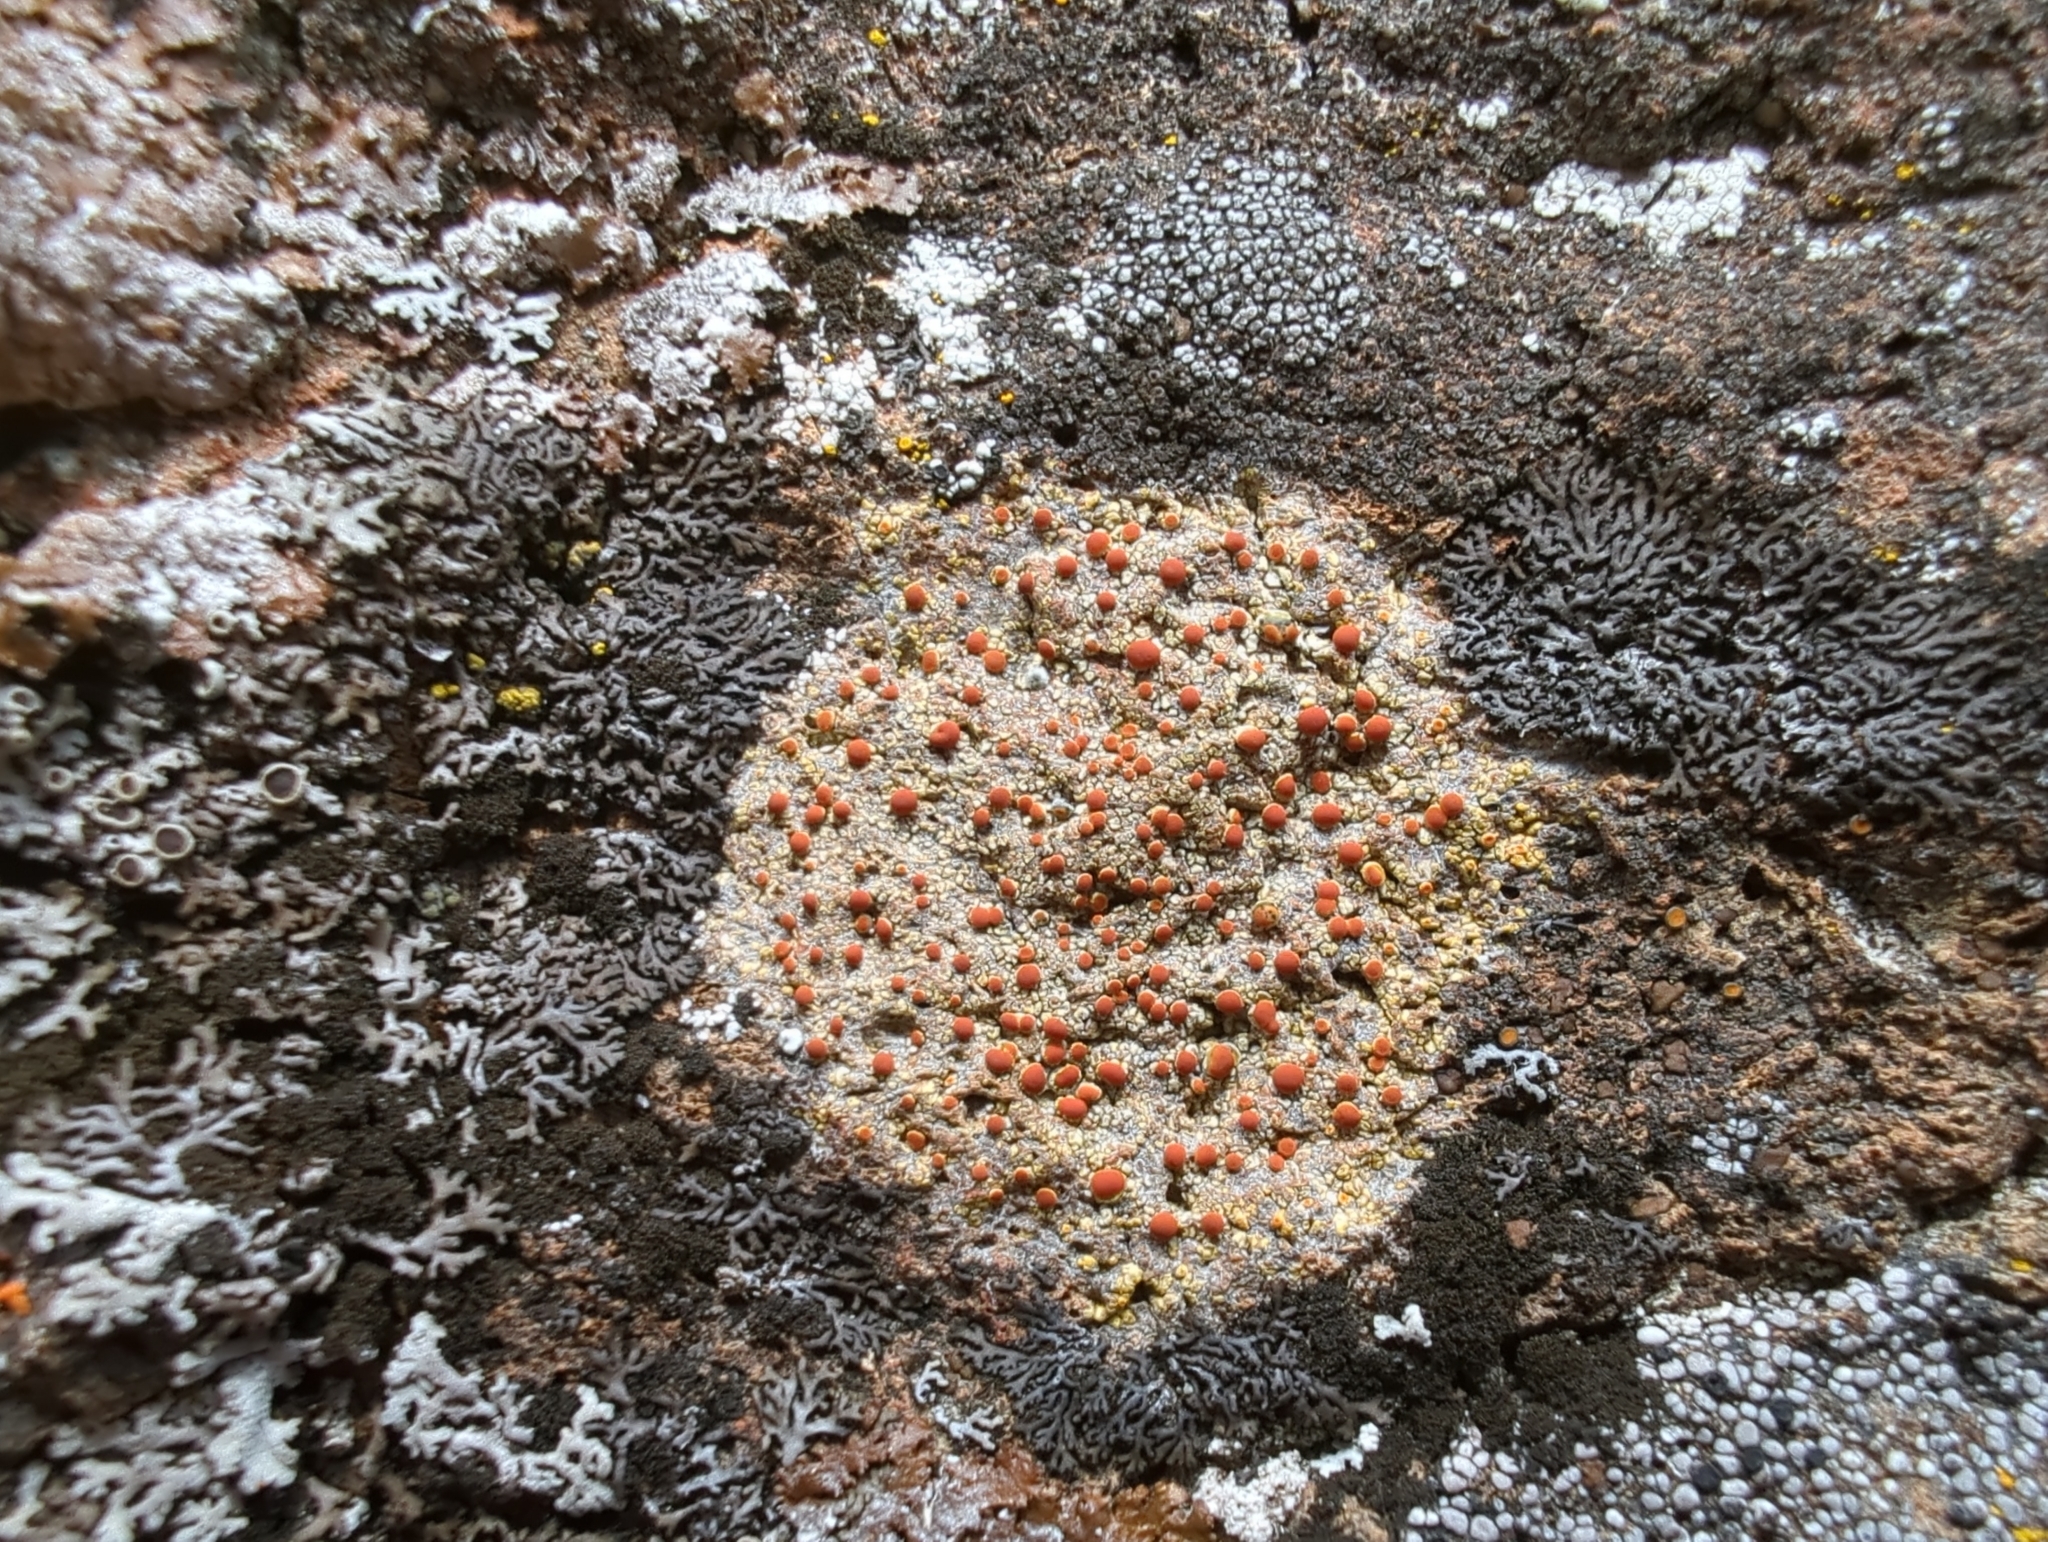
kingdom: Fungi
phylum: Ascomycota
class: Lecanoromycetes
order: Teloschistales
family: Teloschistaceae
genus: Gyalolechia
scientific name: Gyalolechia flavovirescens
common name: Sulphur firedot
